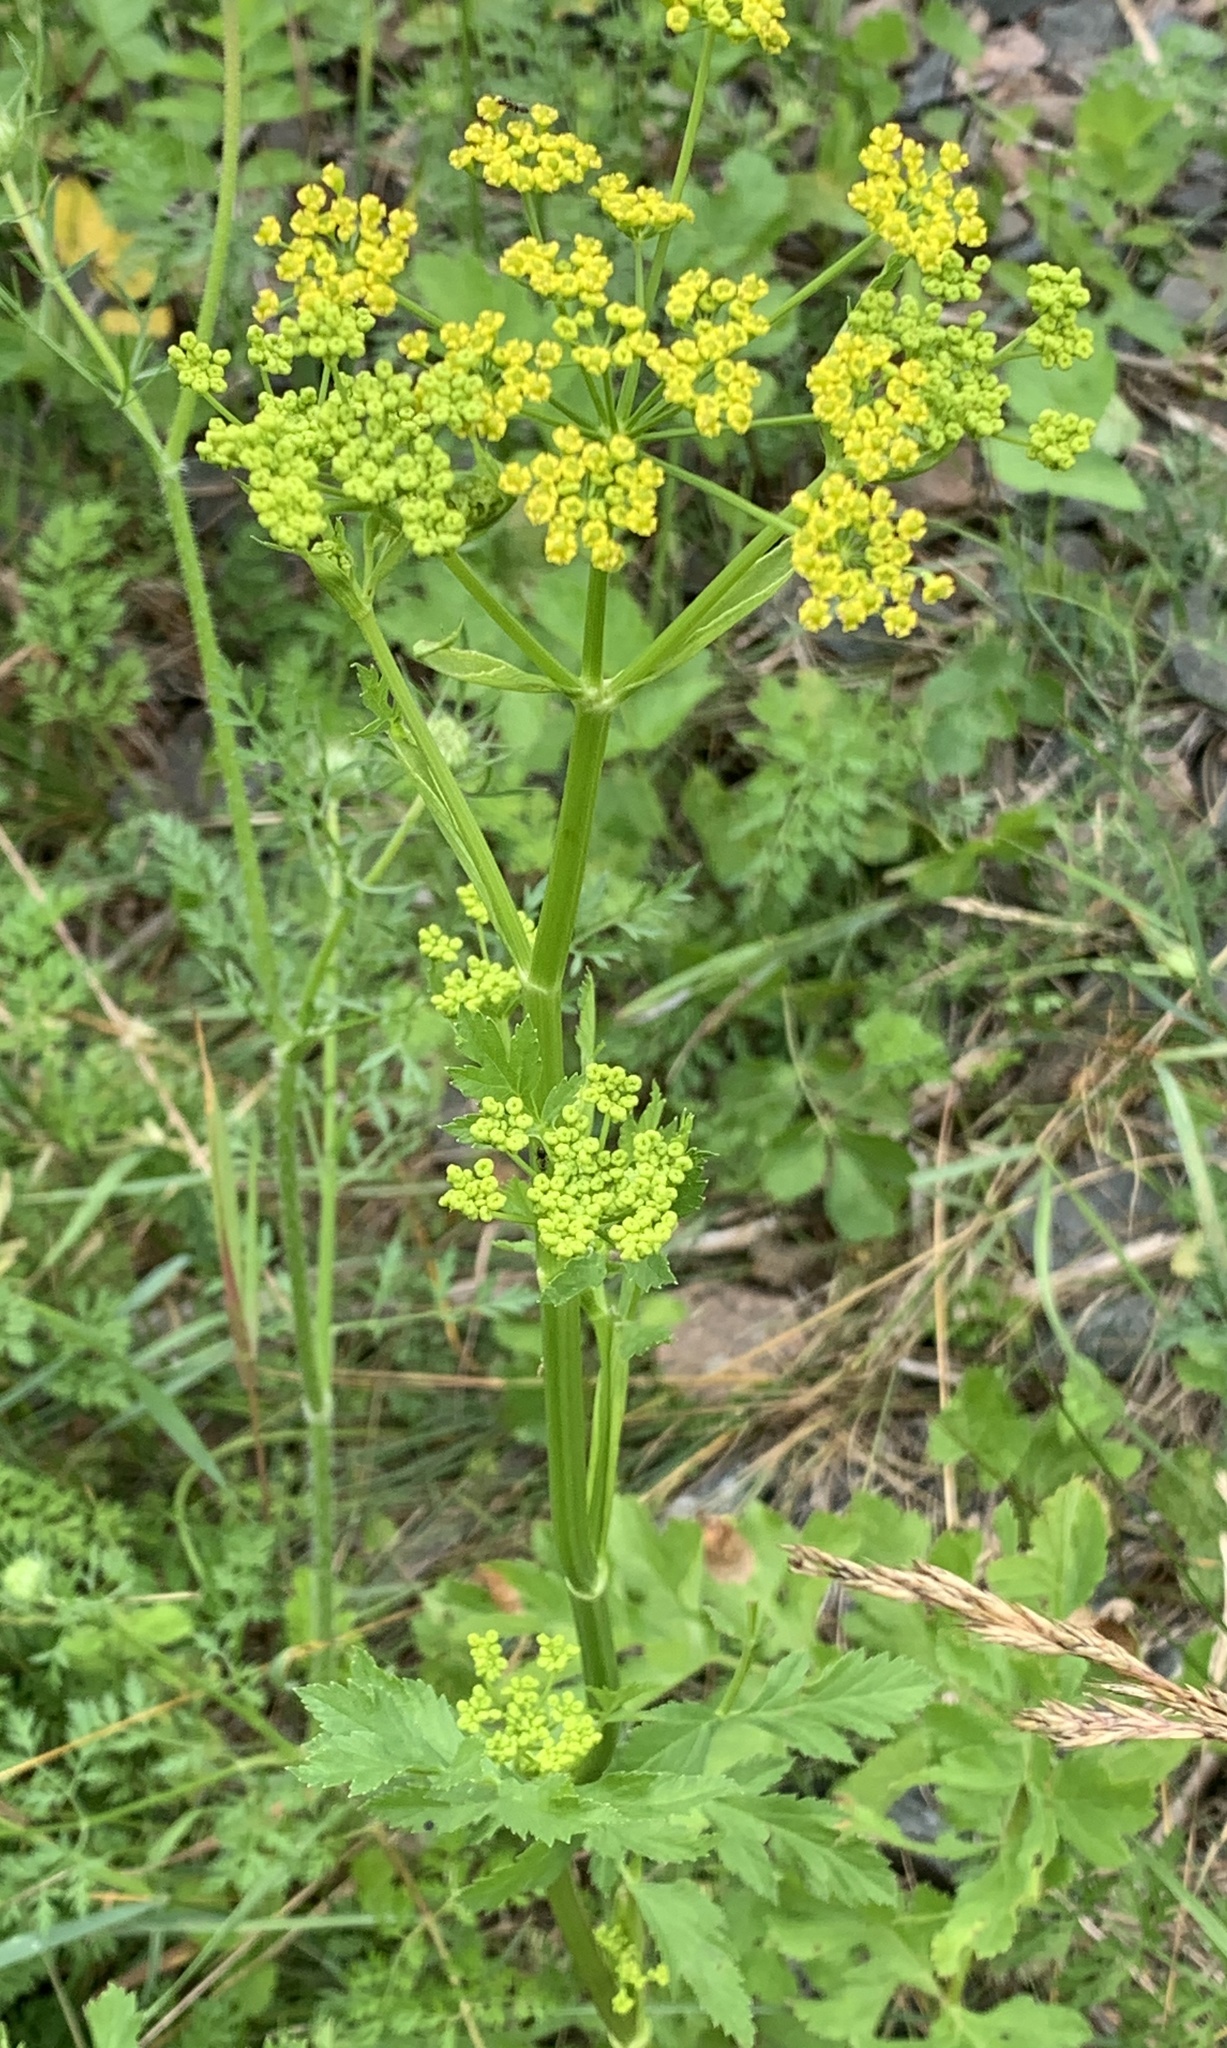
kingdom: Plantae
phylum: Tracheophyta
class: Magnoliopsida
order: Apiales
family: Apiaceae
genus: Pastinaca
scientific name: Pastinaca sativa
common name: Wild parsnip
